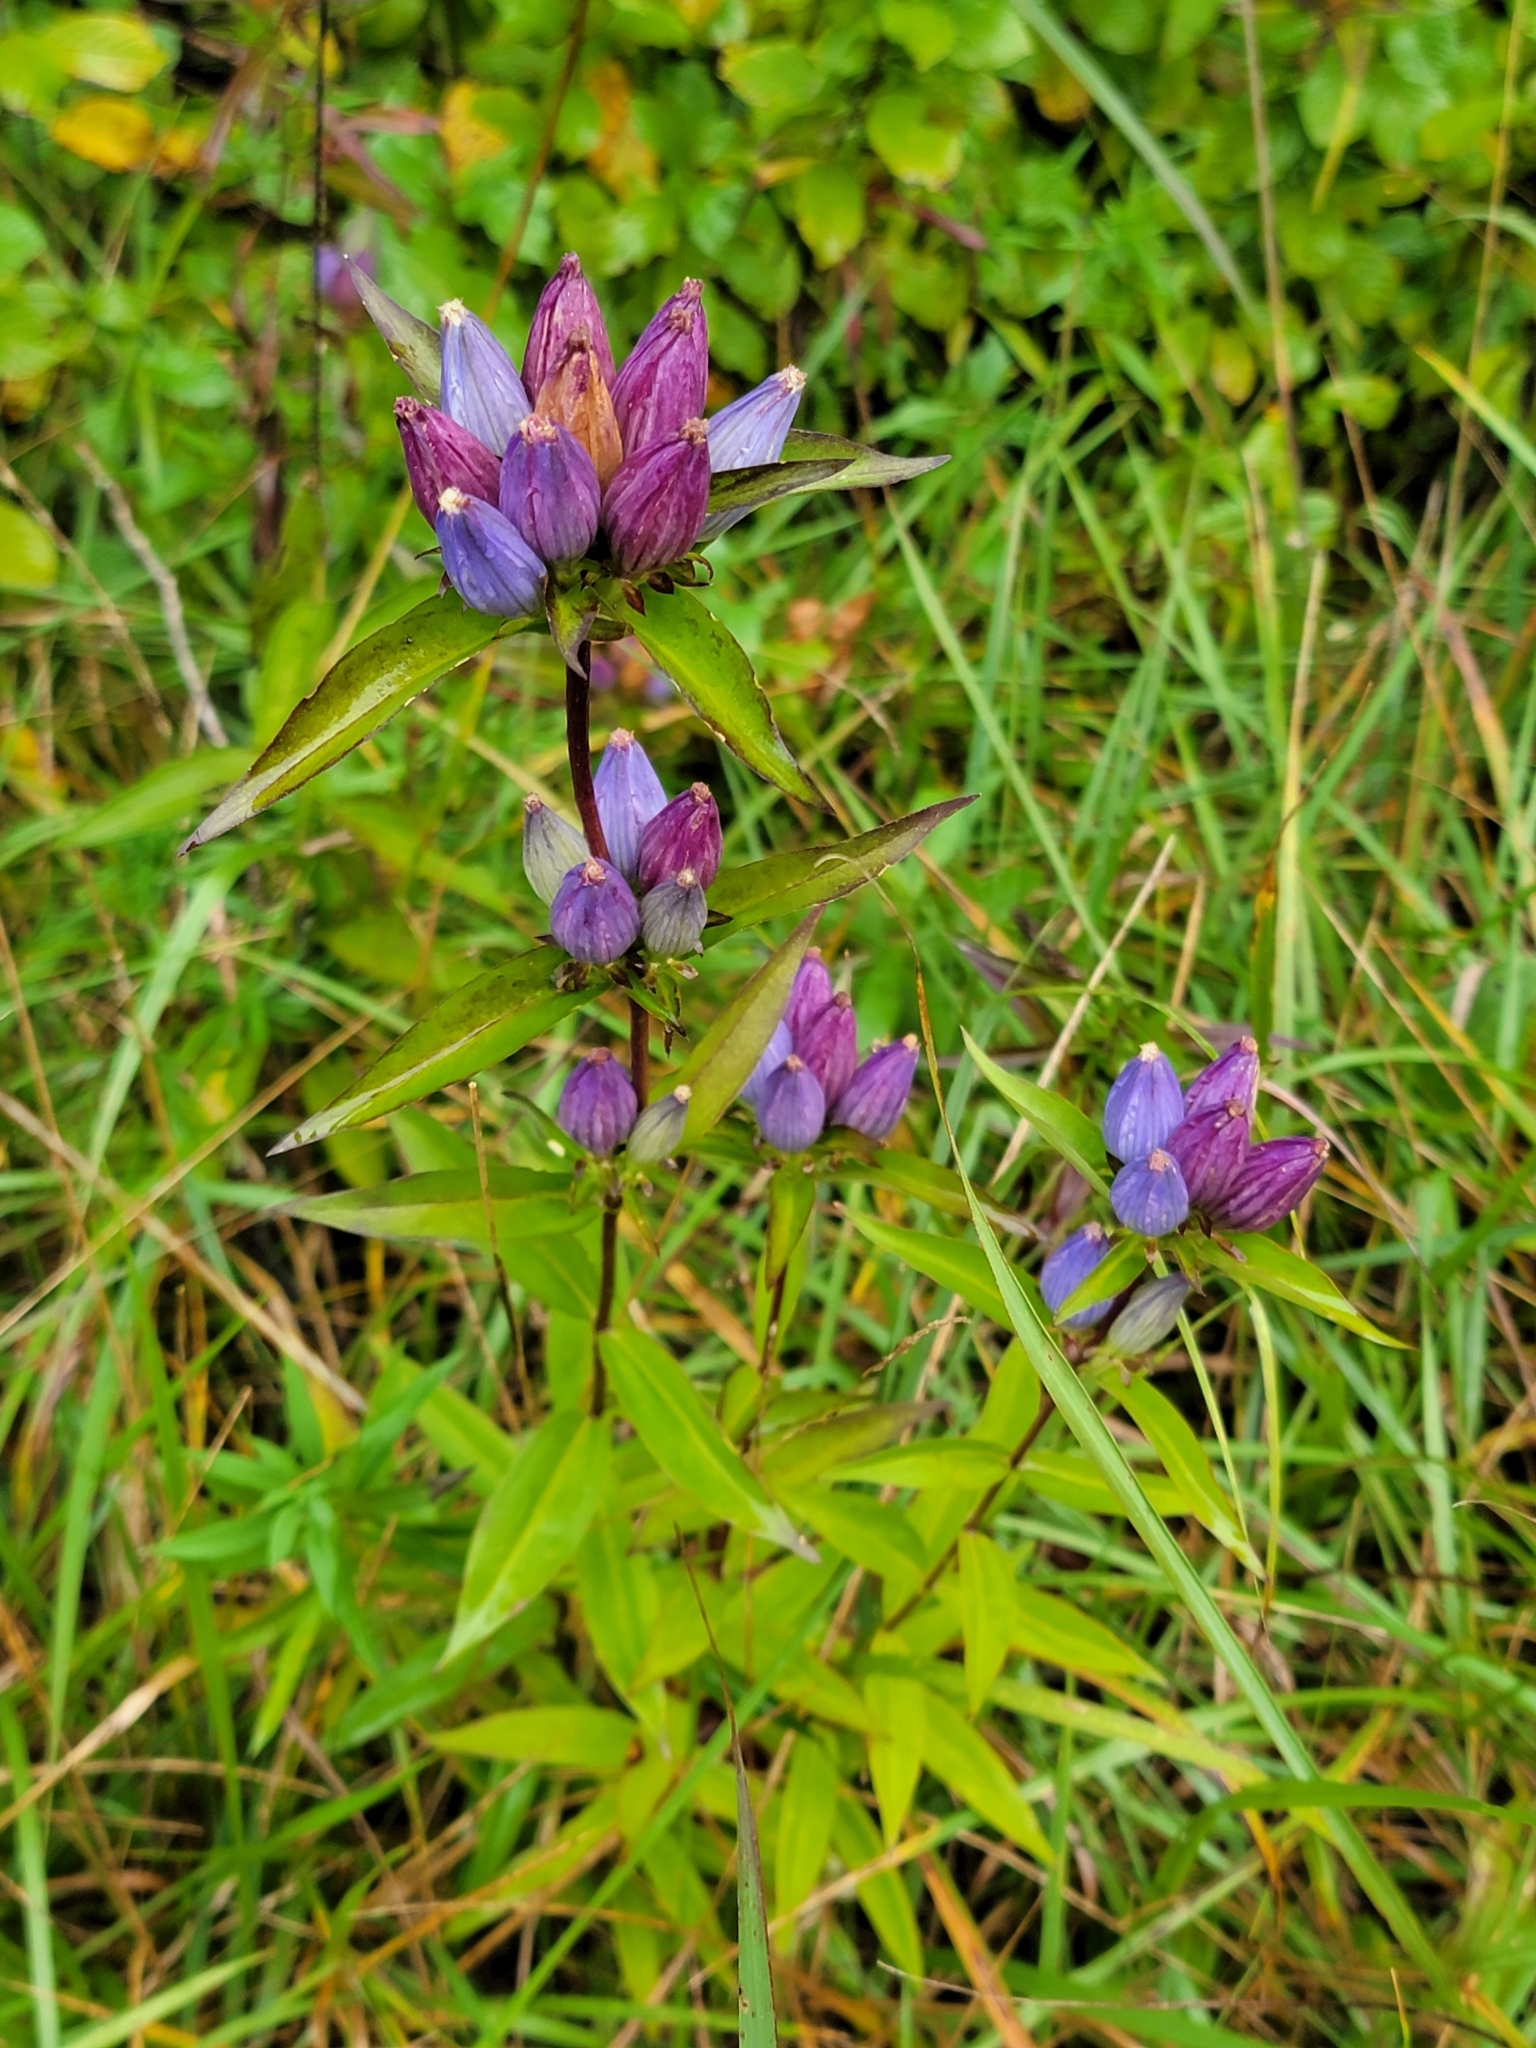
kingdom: Plantae
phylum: Tracheophyta
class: Magnoliopsida
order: Gentianales
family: Gentianaceae
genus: Gentiana
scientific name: Gentiana andrewsii
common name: Bottle gentian
